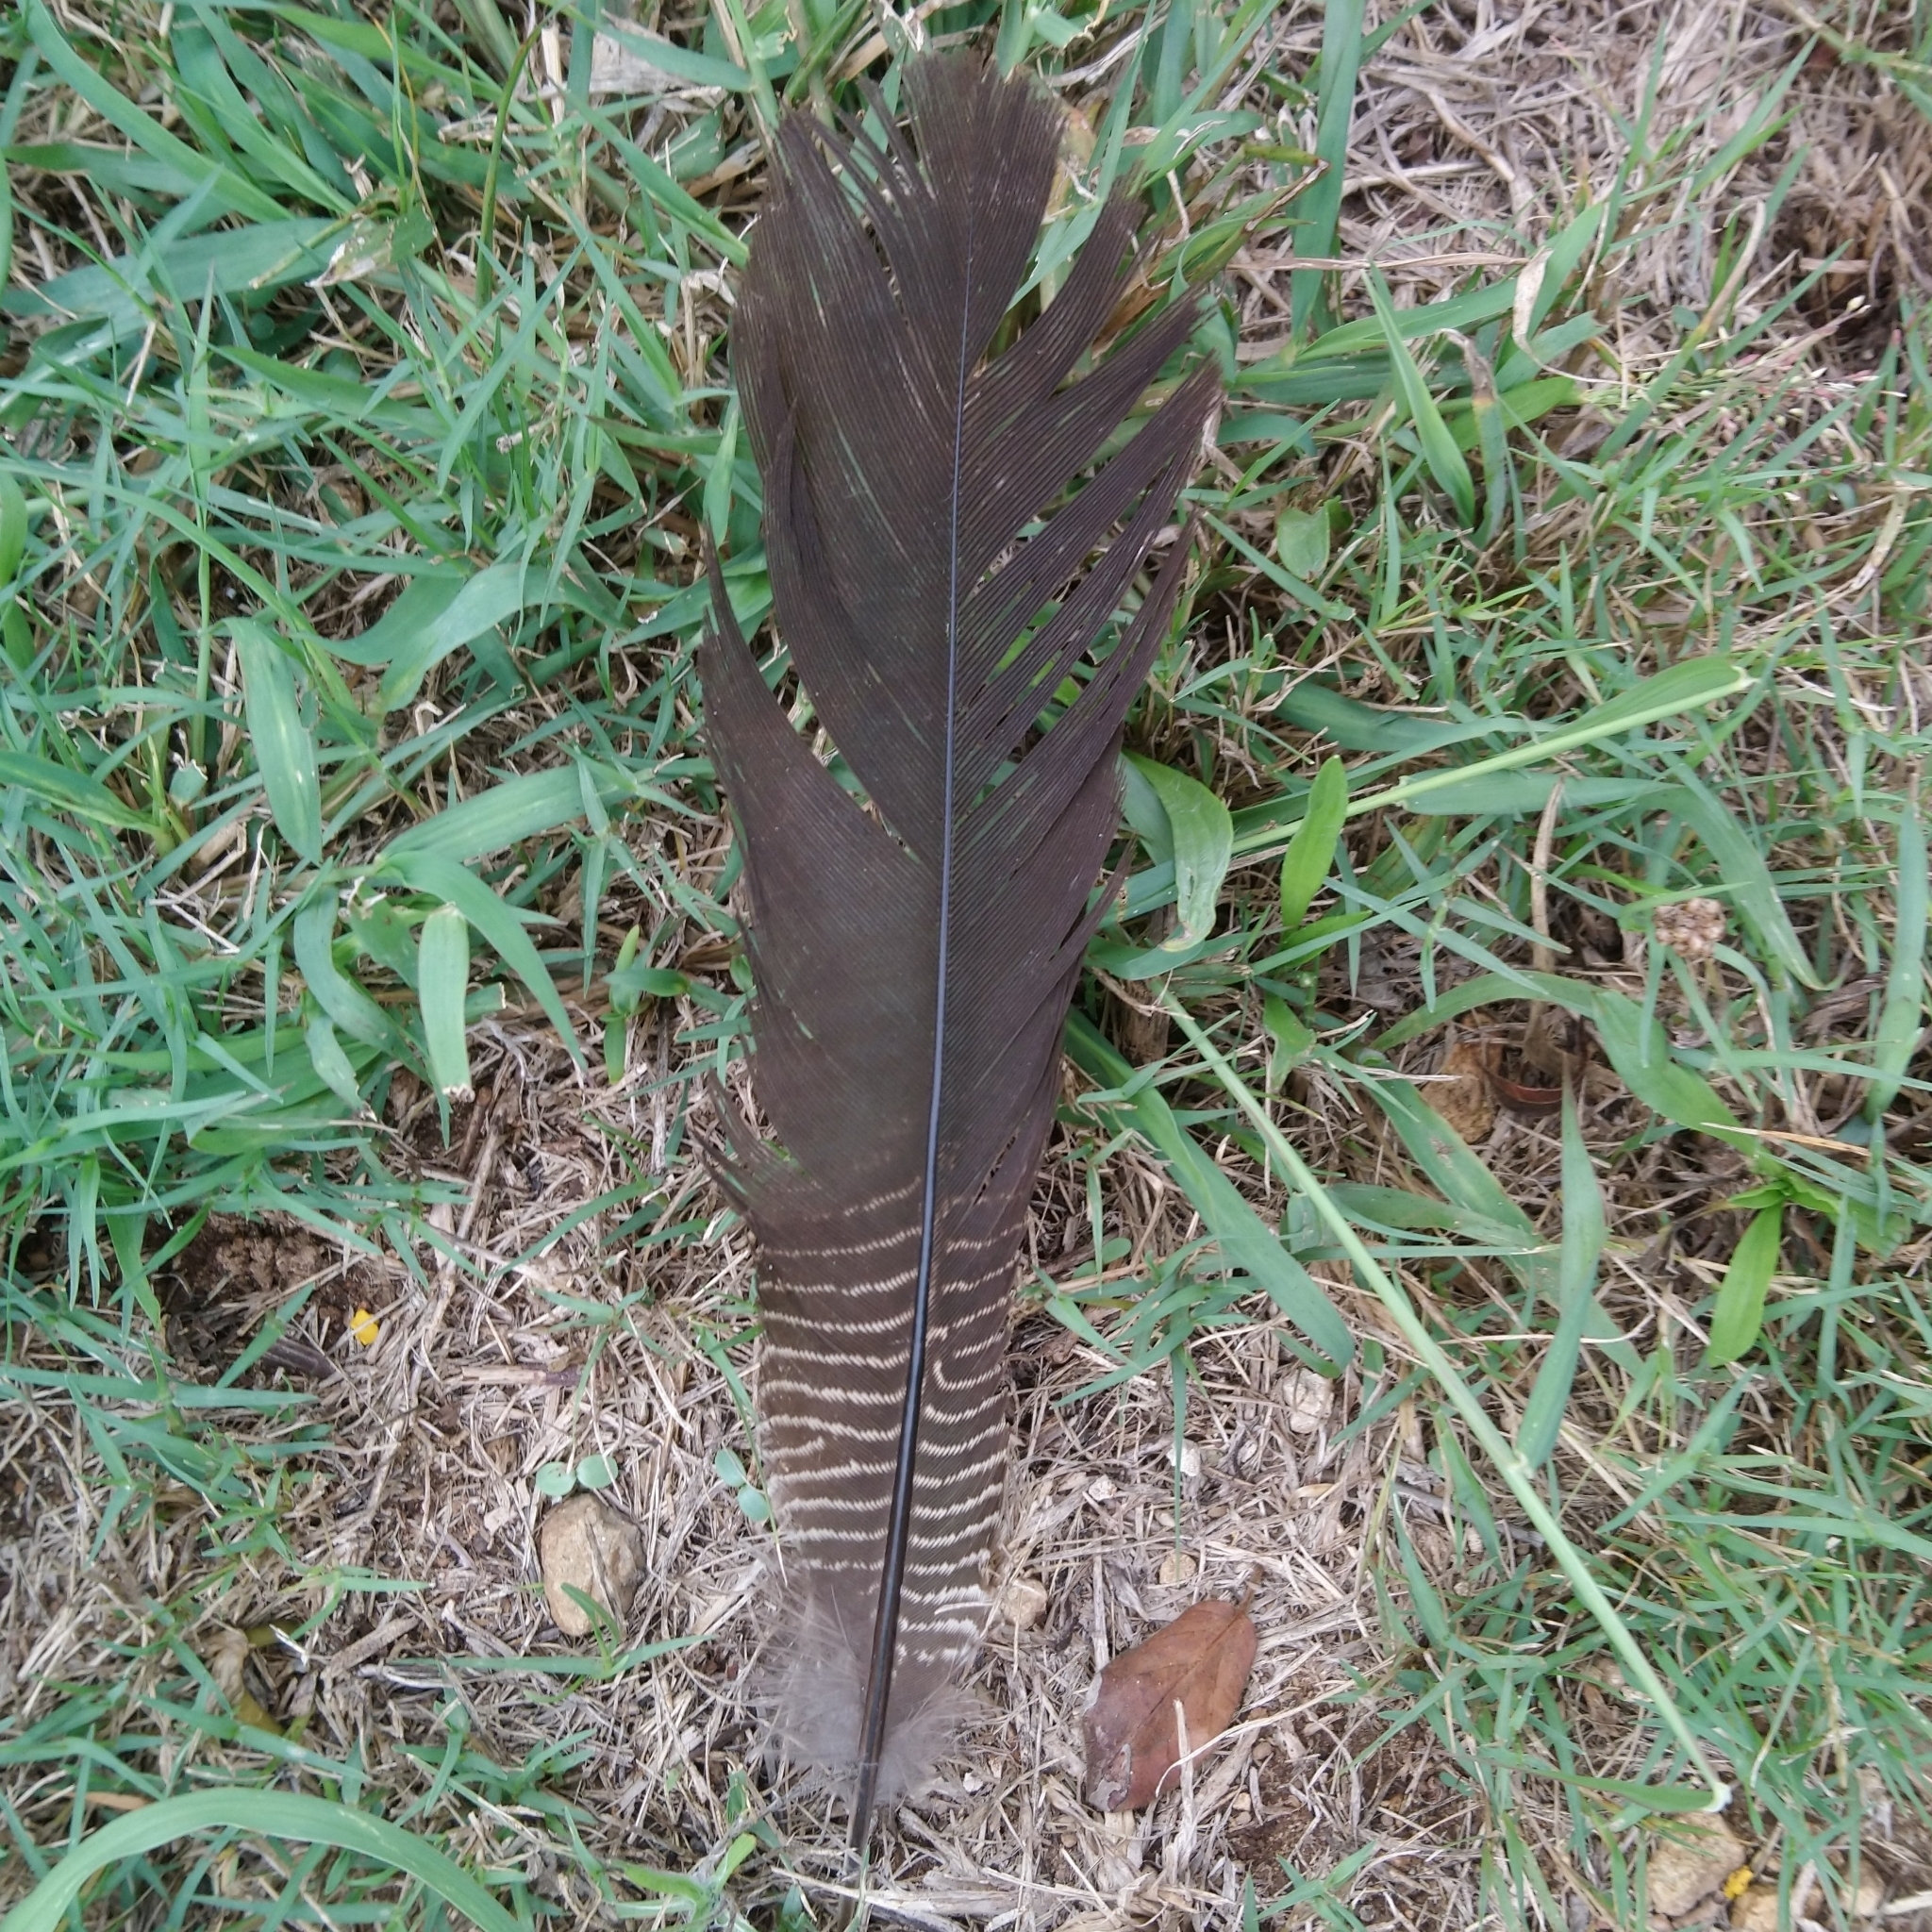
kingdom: Animalia
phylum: Chordata
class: Aves
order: Cuculiformes
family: Cuculidae
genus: Centropus
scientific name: Centropus superciliosus
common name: White-browed coucal
